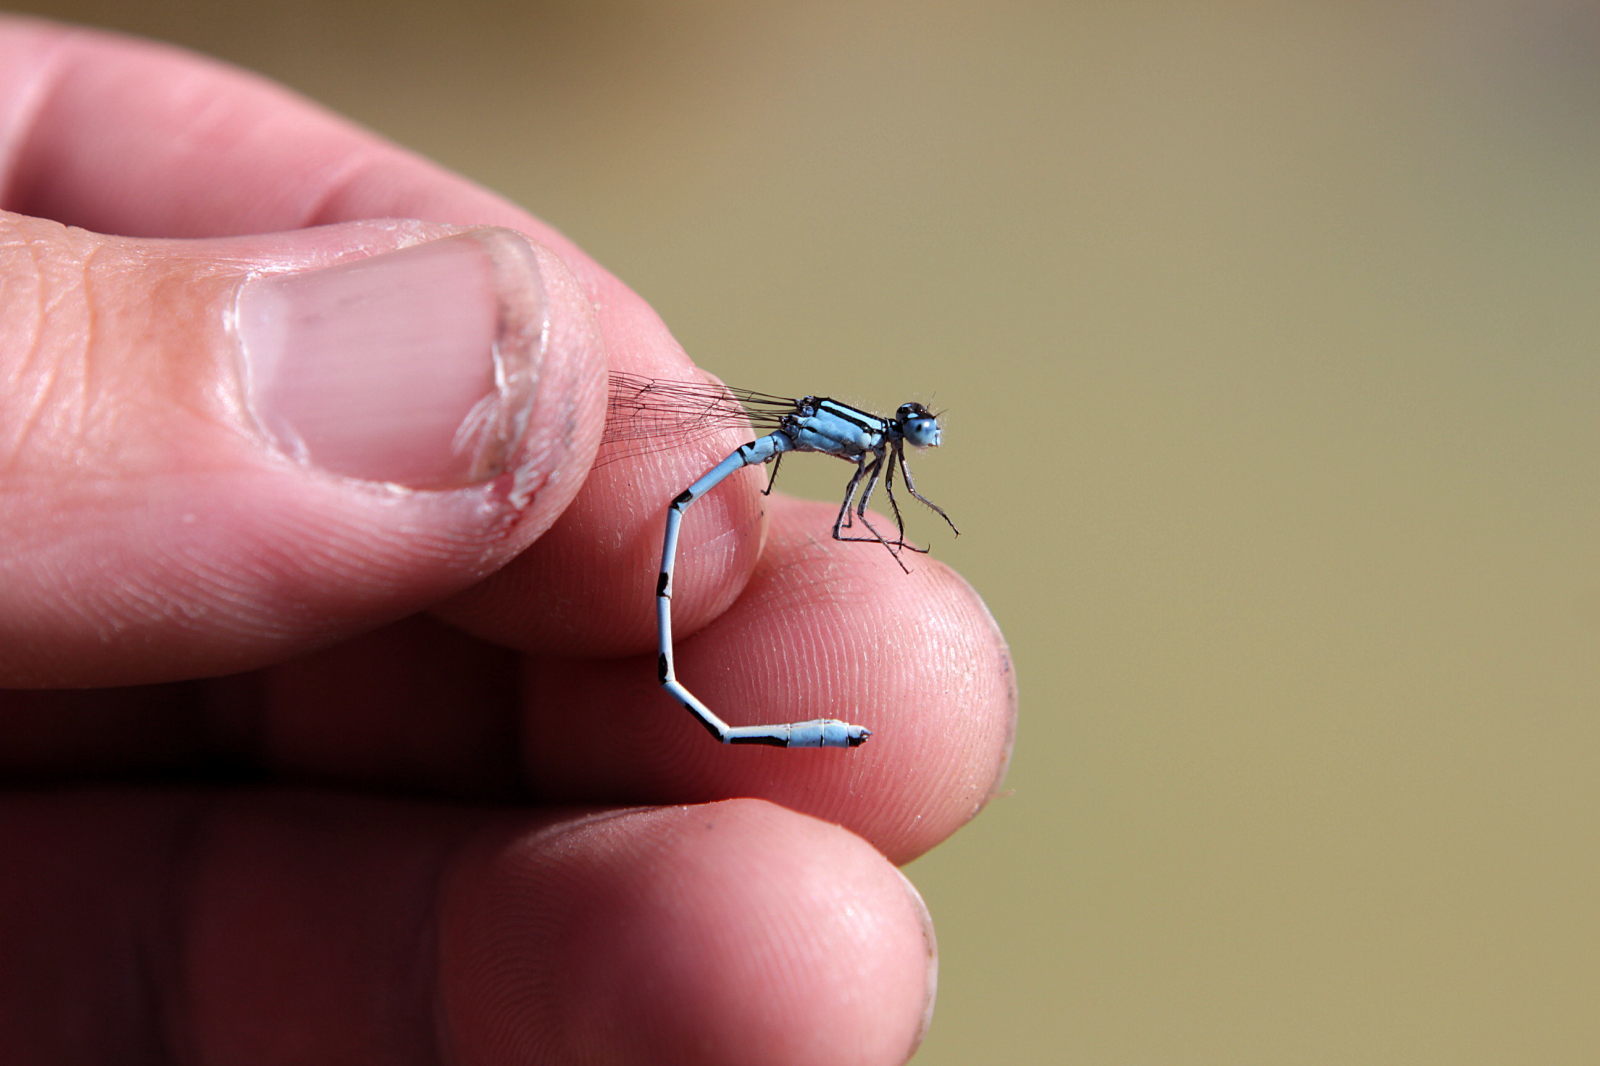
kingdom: Animalia
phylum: Arthropoda
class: Insecta
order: Odonata
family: Coenagrionidae
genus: Enallagma
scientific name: Enallagma cyathigerum
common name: Common blue damselfly
